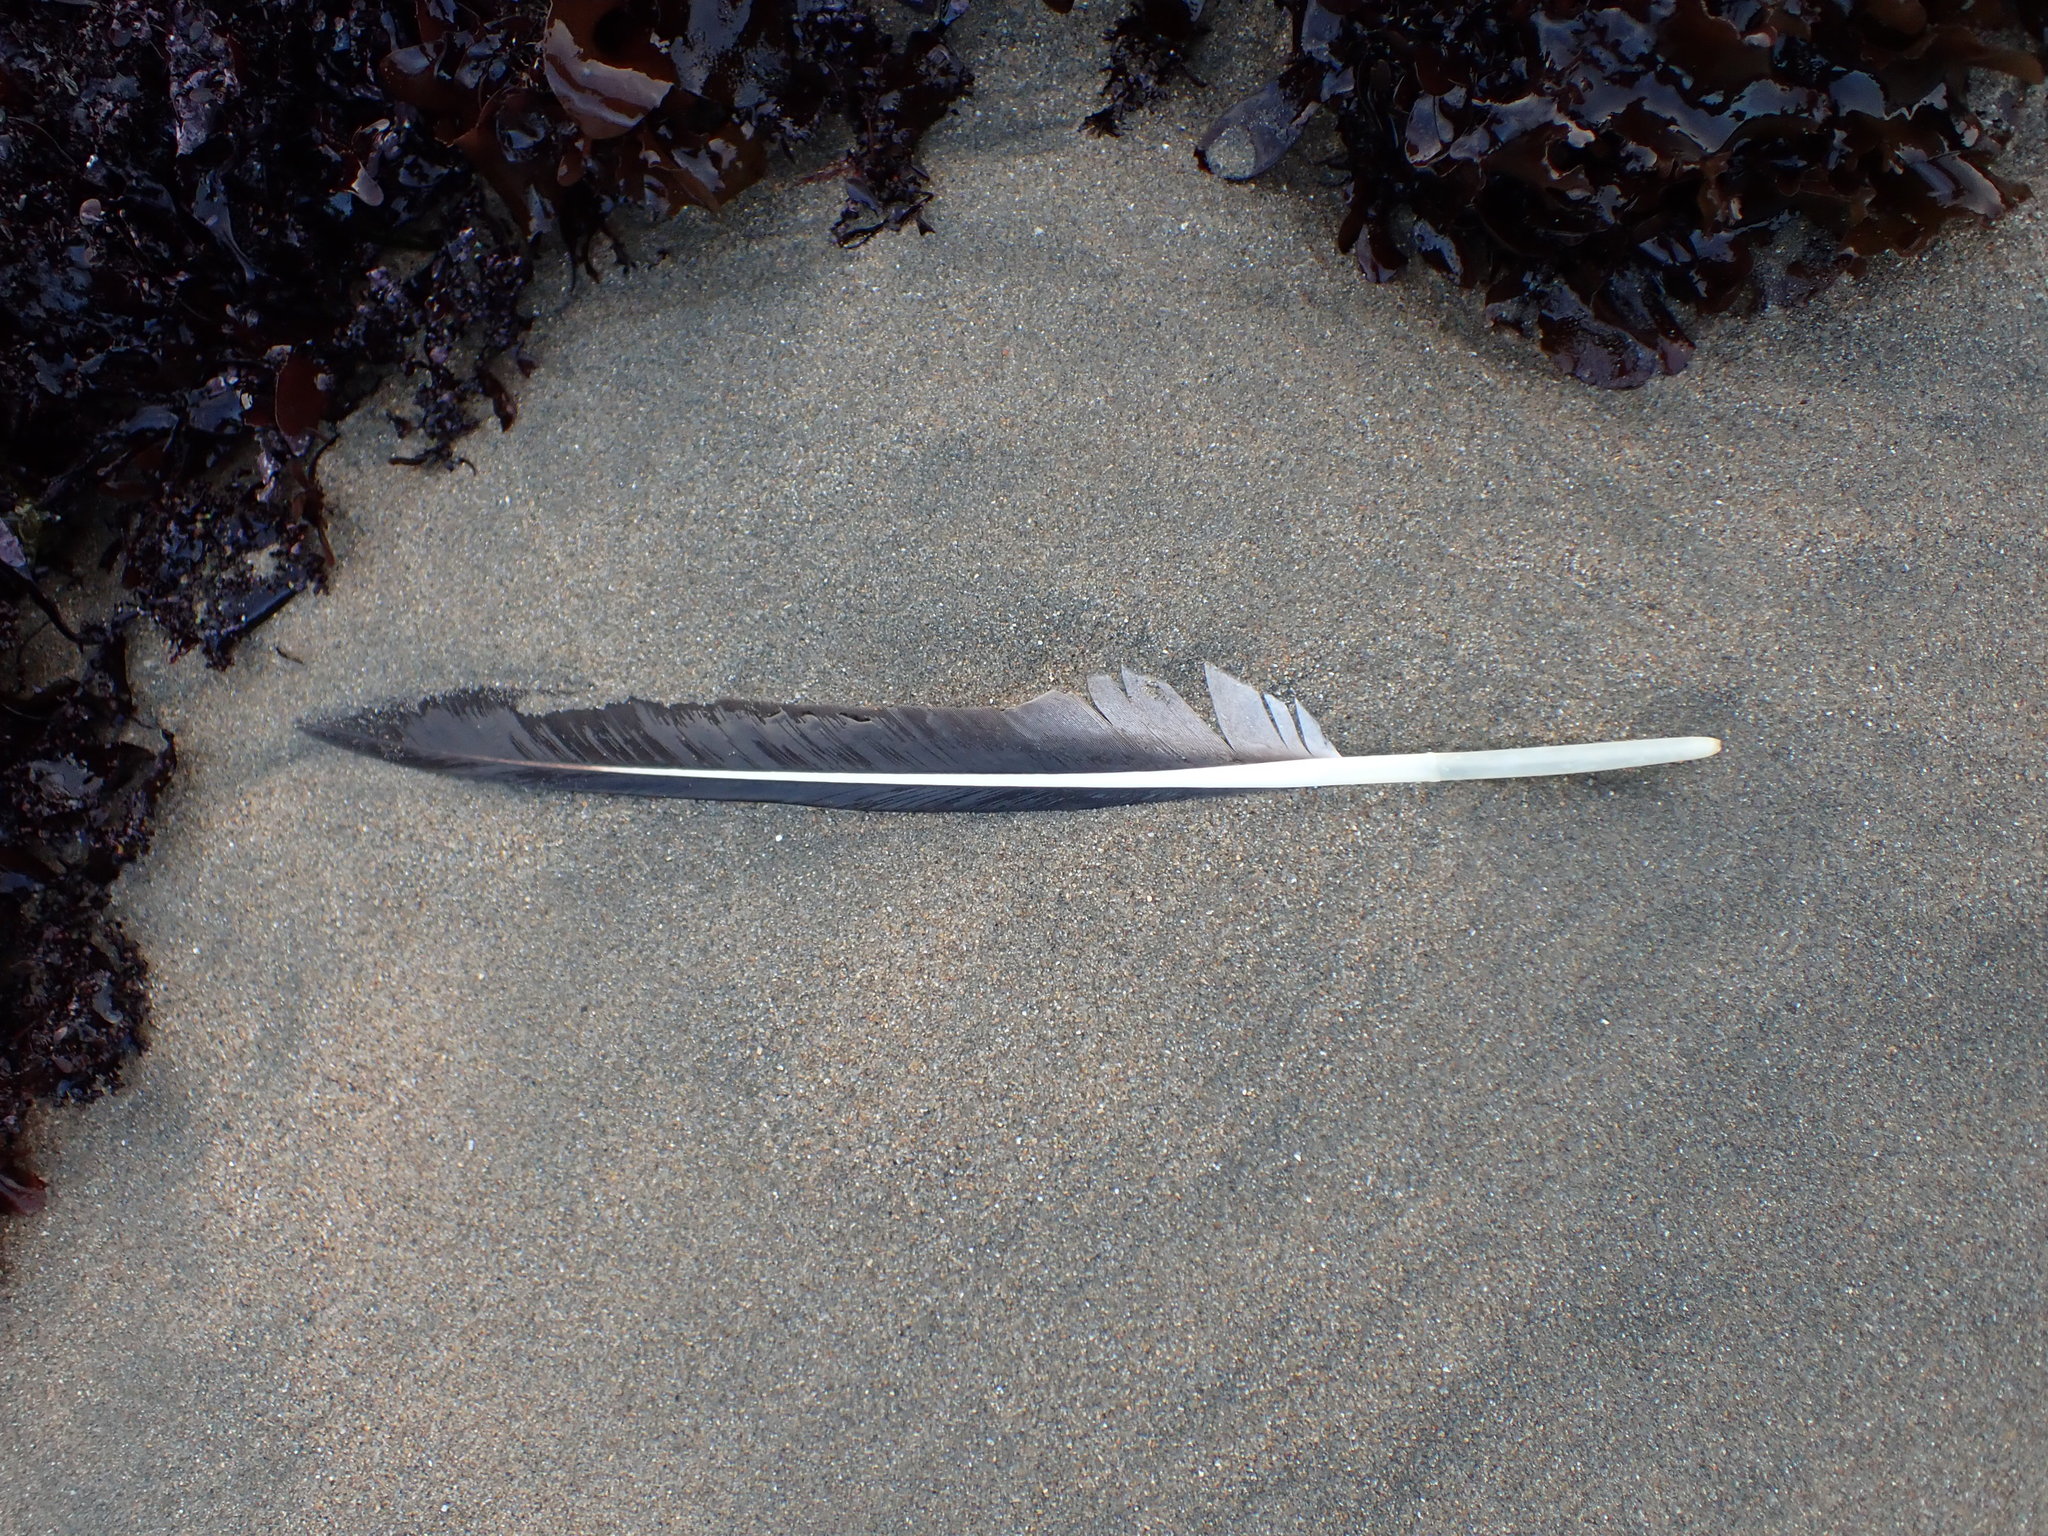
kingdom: Animalia
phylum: Chordata
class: Aves
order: Pelecaniformes
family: Pelecanidae
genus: Pelecanus
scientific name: Pelecanus occidentalis
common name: Brown pelican
